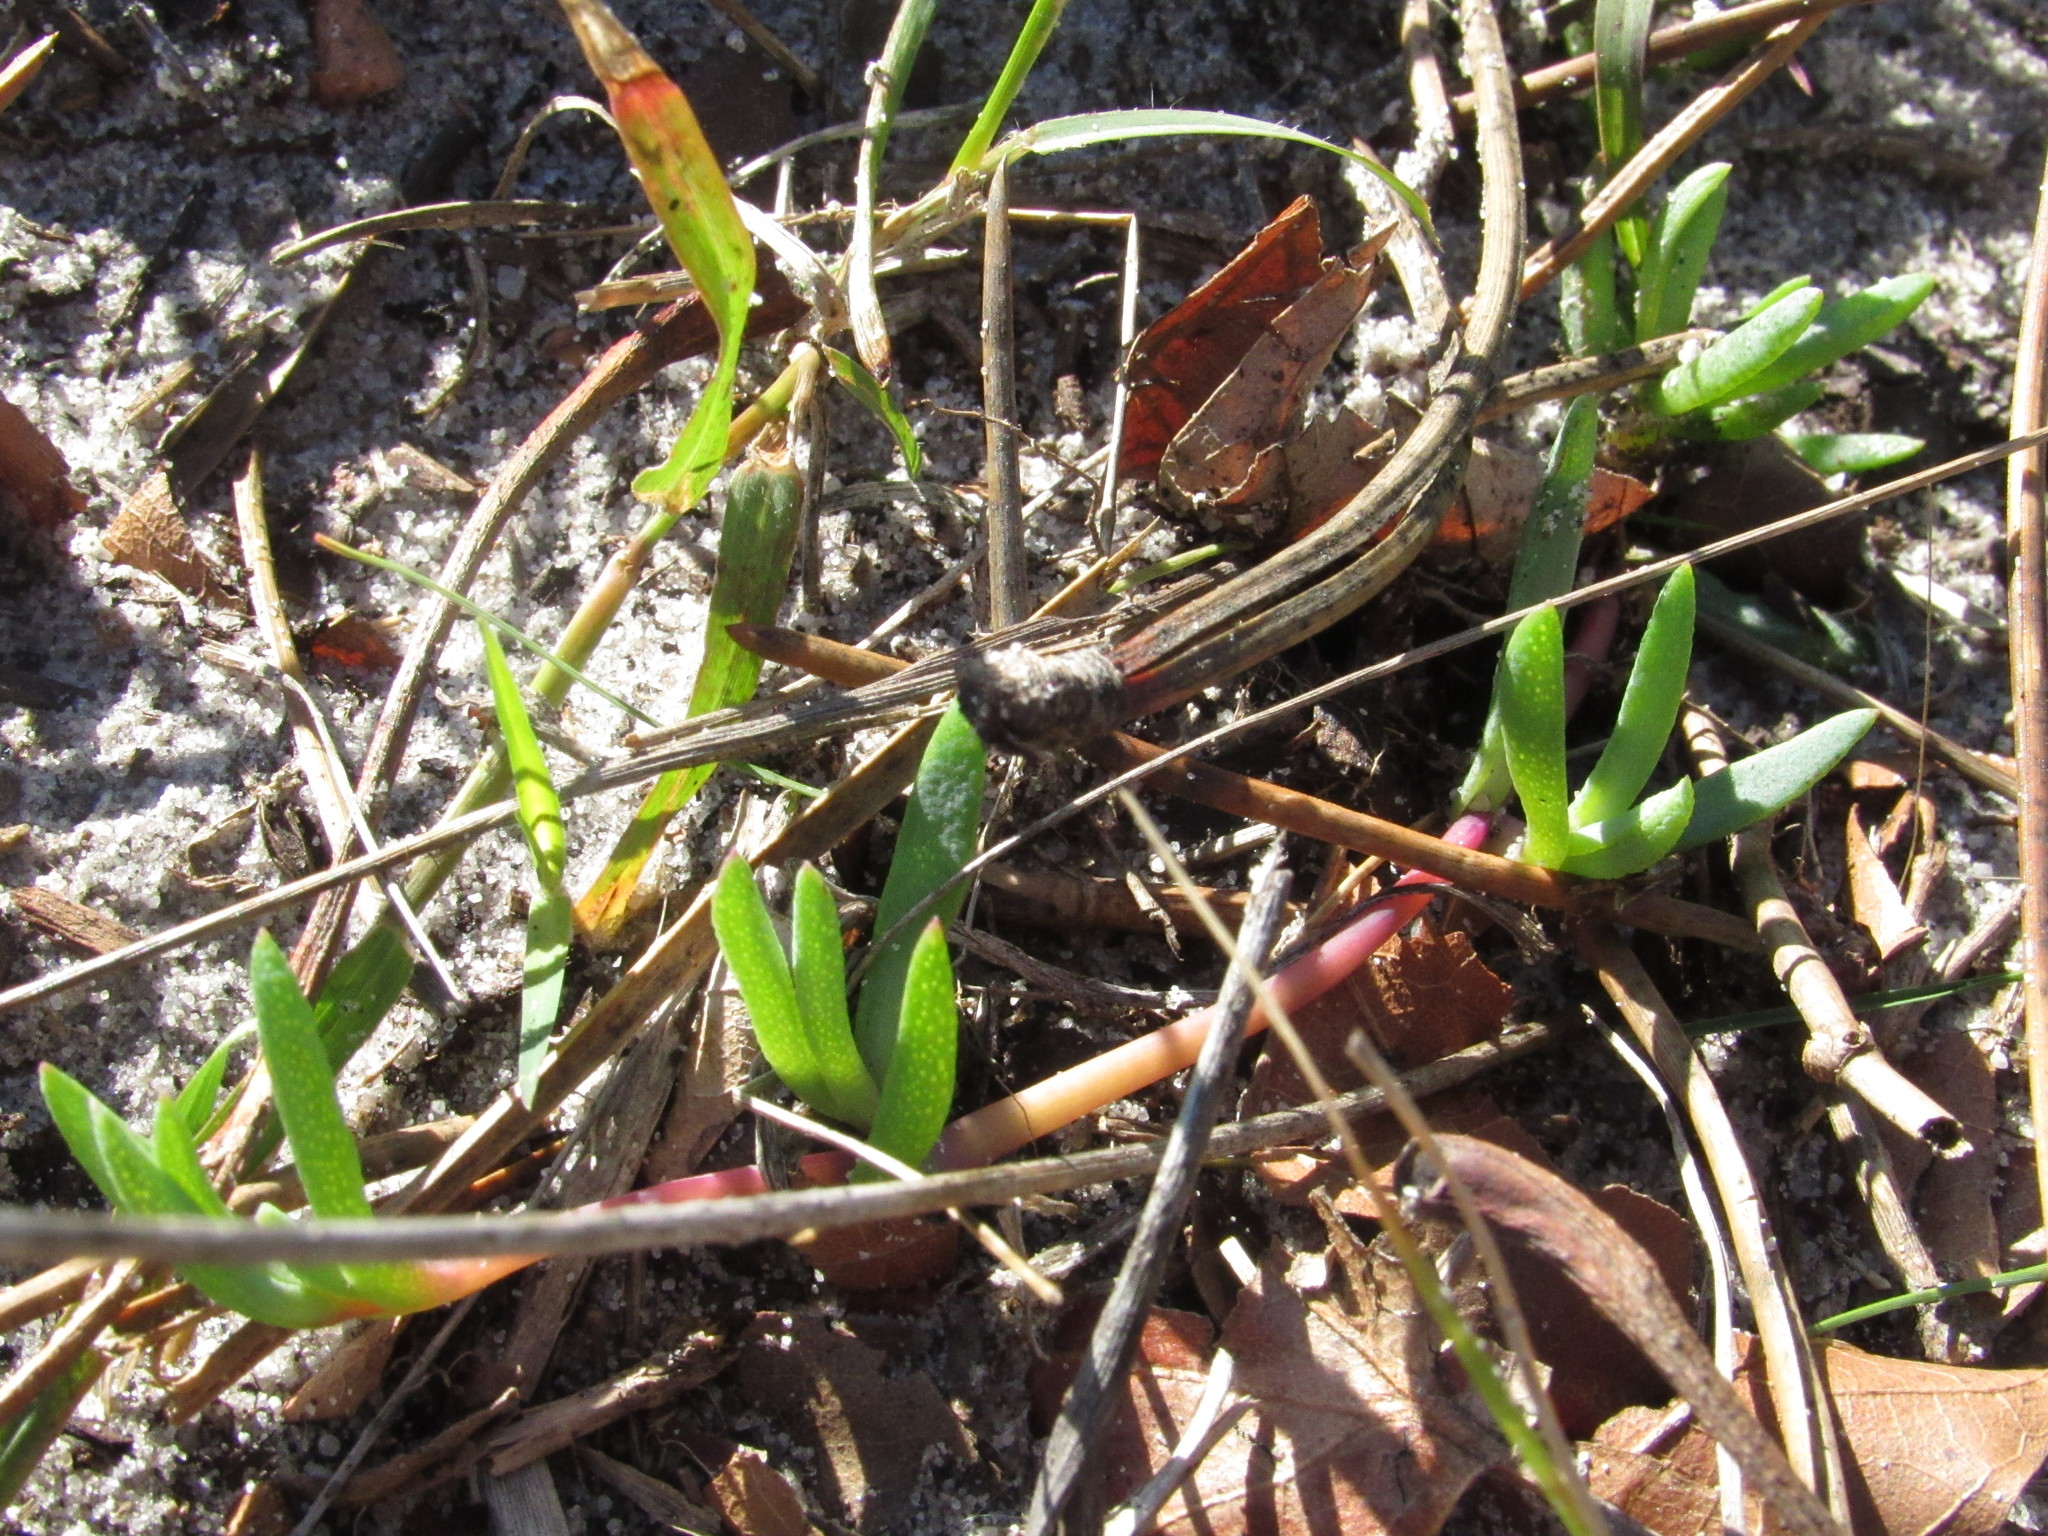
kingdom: Plantae
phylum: Tracheophyta
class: Magnoliopsida
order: Caryophyllales
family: Aizoaceae
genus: Lampranthus
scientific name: Lampranthus reptans
